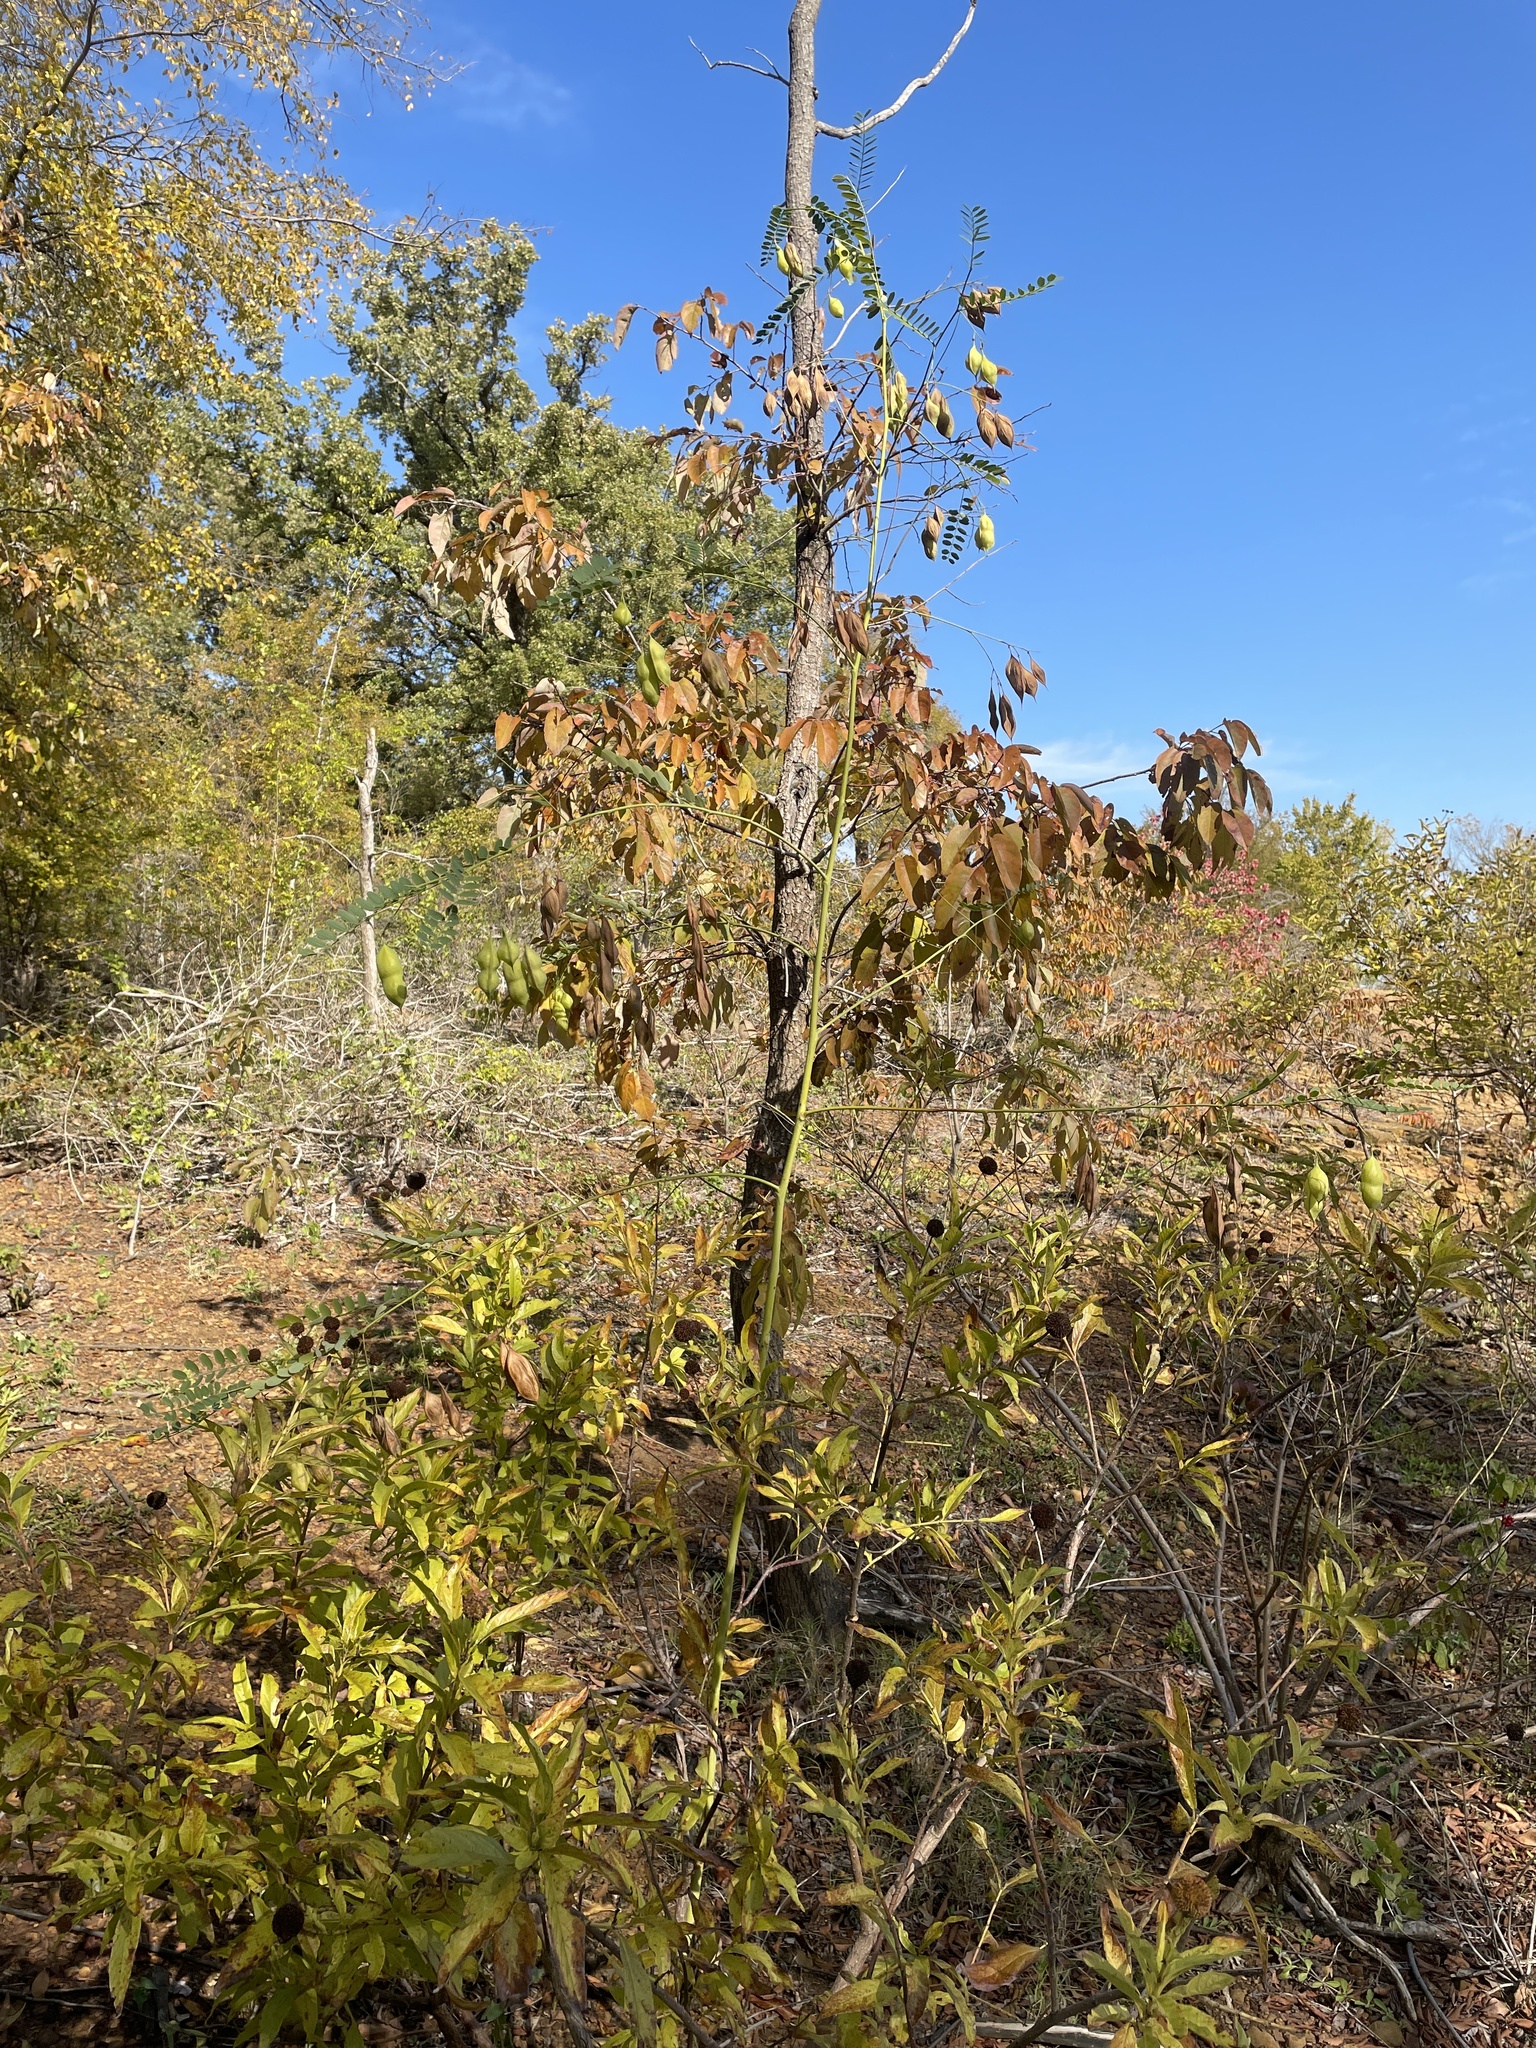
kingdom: Plantae
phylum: Tracheophyta
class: Magnoliopsida
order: Fabales
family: Fabaceae
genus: Sesbania
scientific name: Sesbania vesicaria
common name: Bagpod
